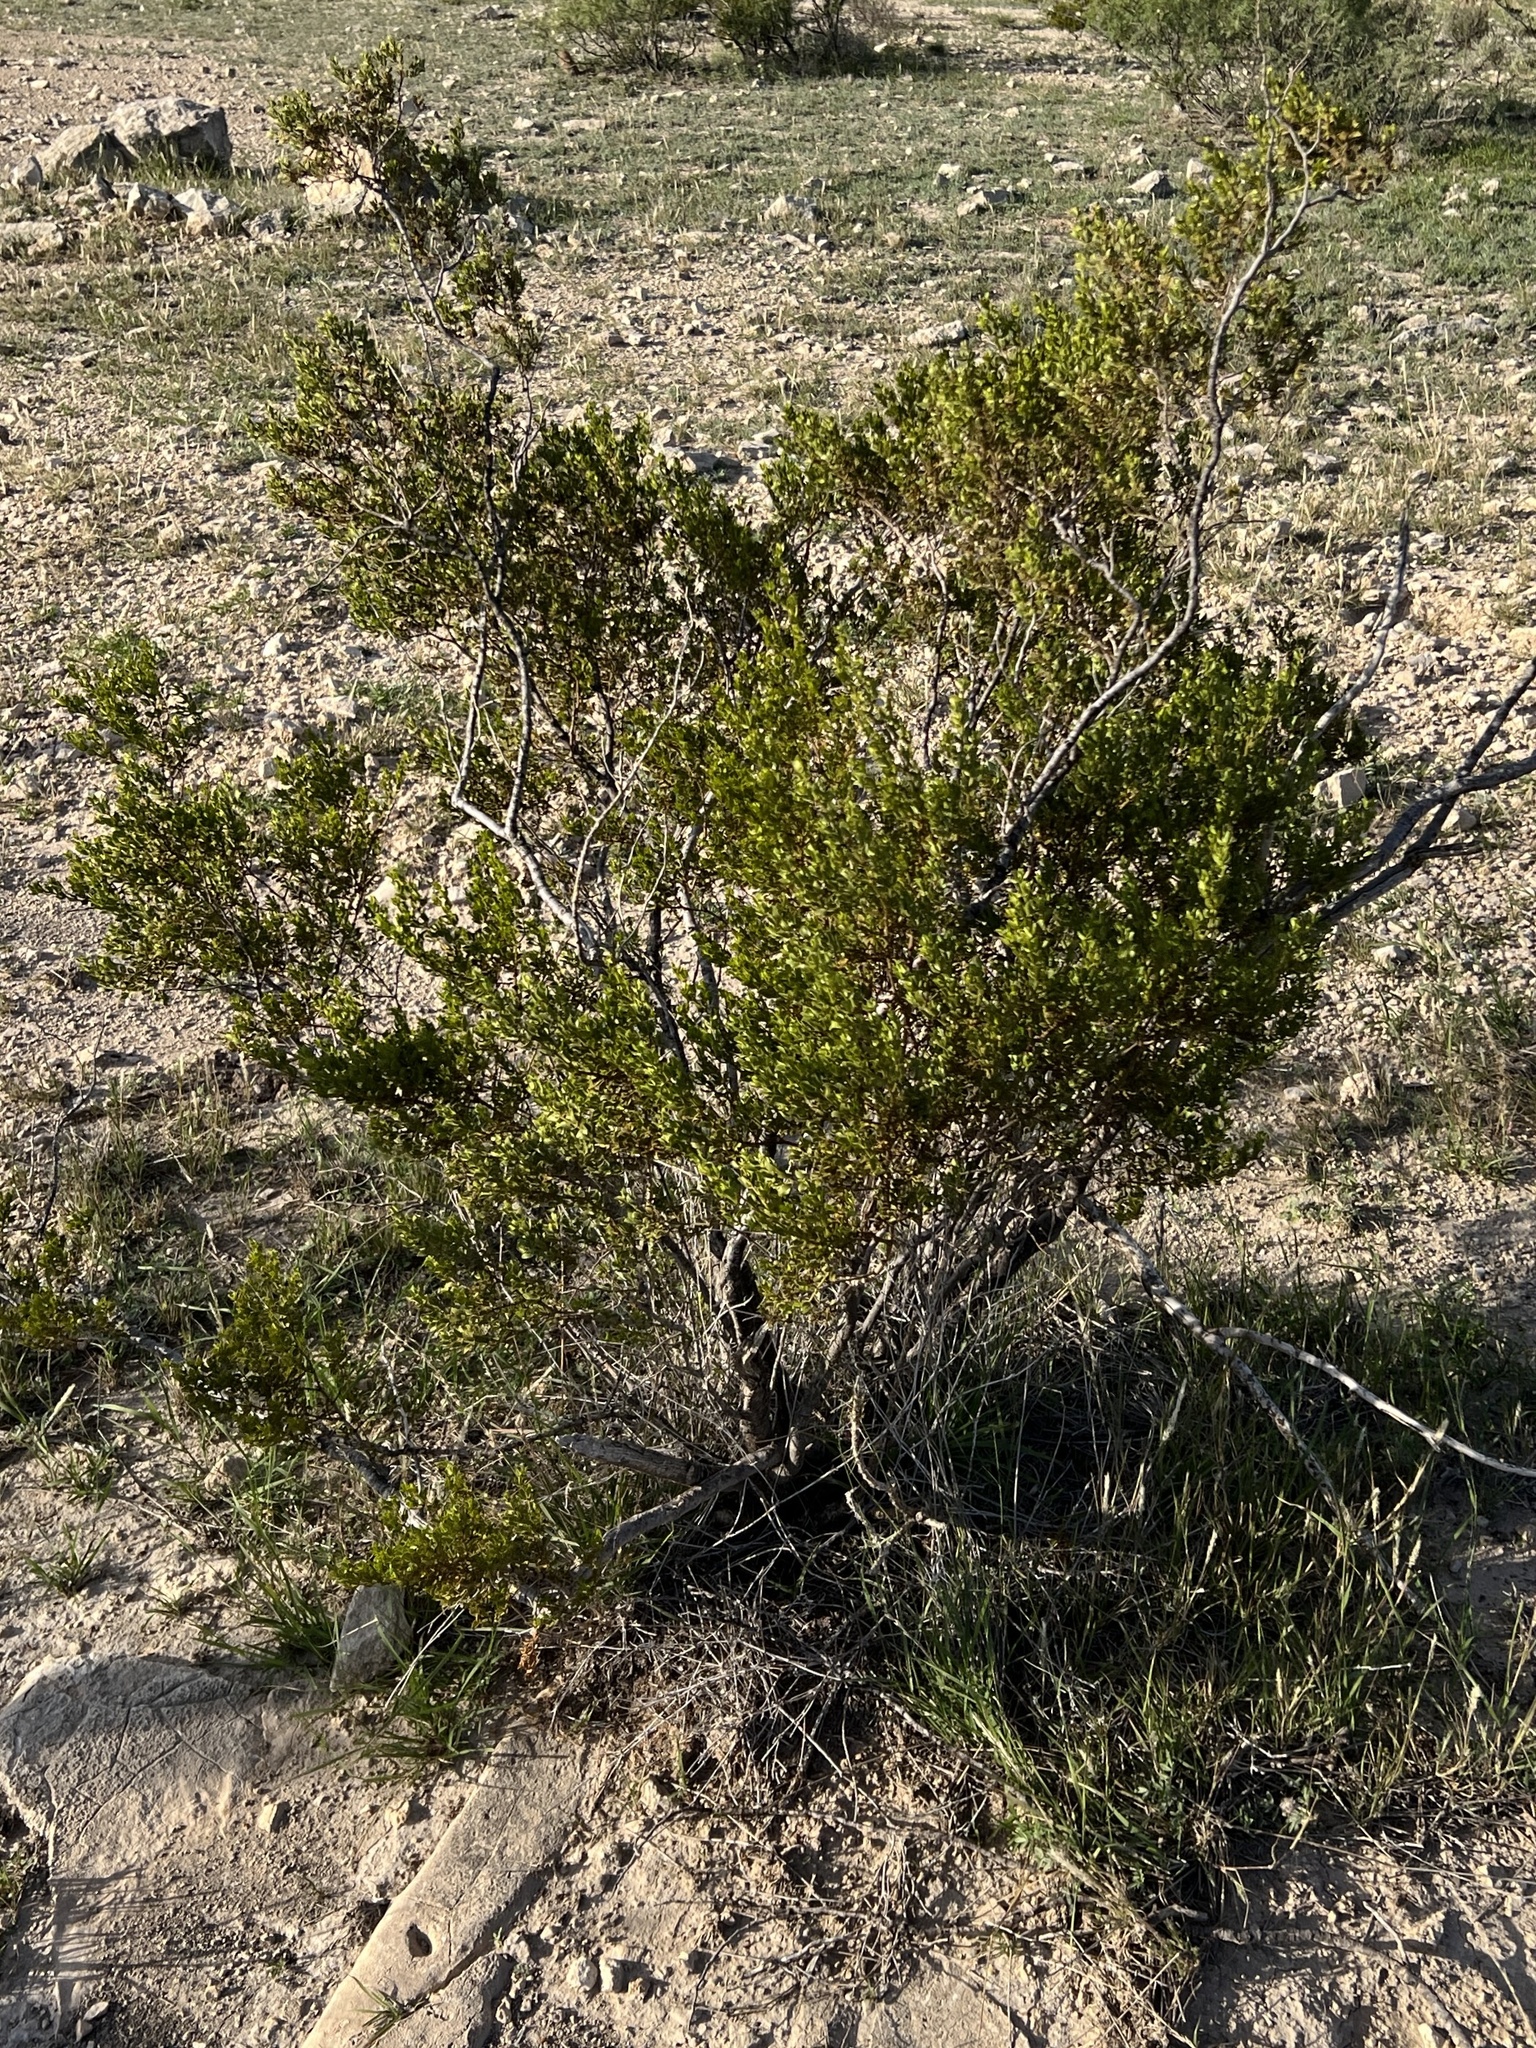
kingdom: Plantae
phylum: Tracheophyta
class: Magnoliopsida
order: Zygophyllales
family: Zygophyllaceae
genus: Larrea
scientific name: Larrea tridentata
